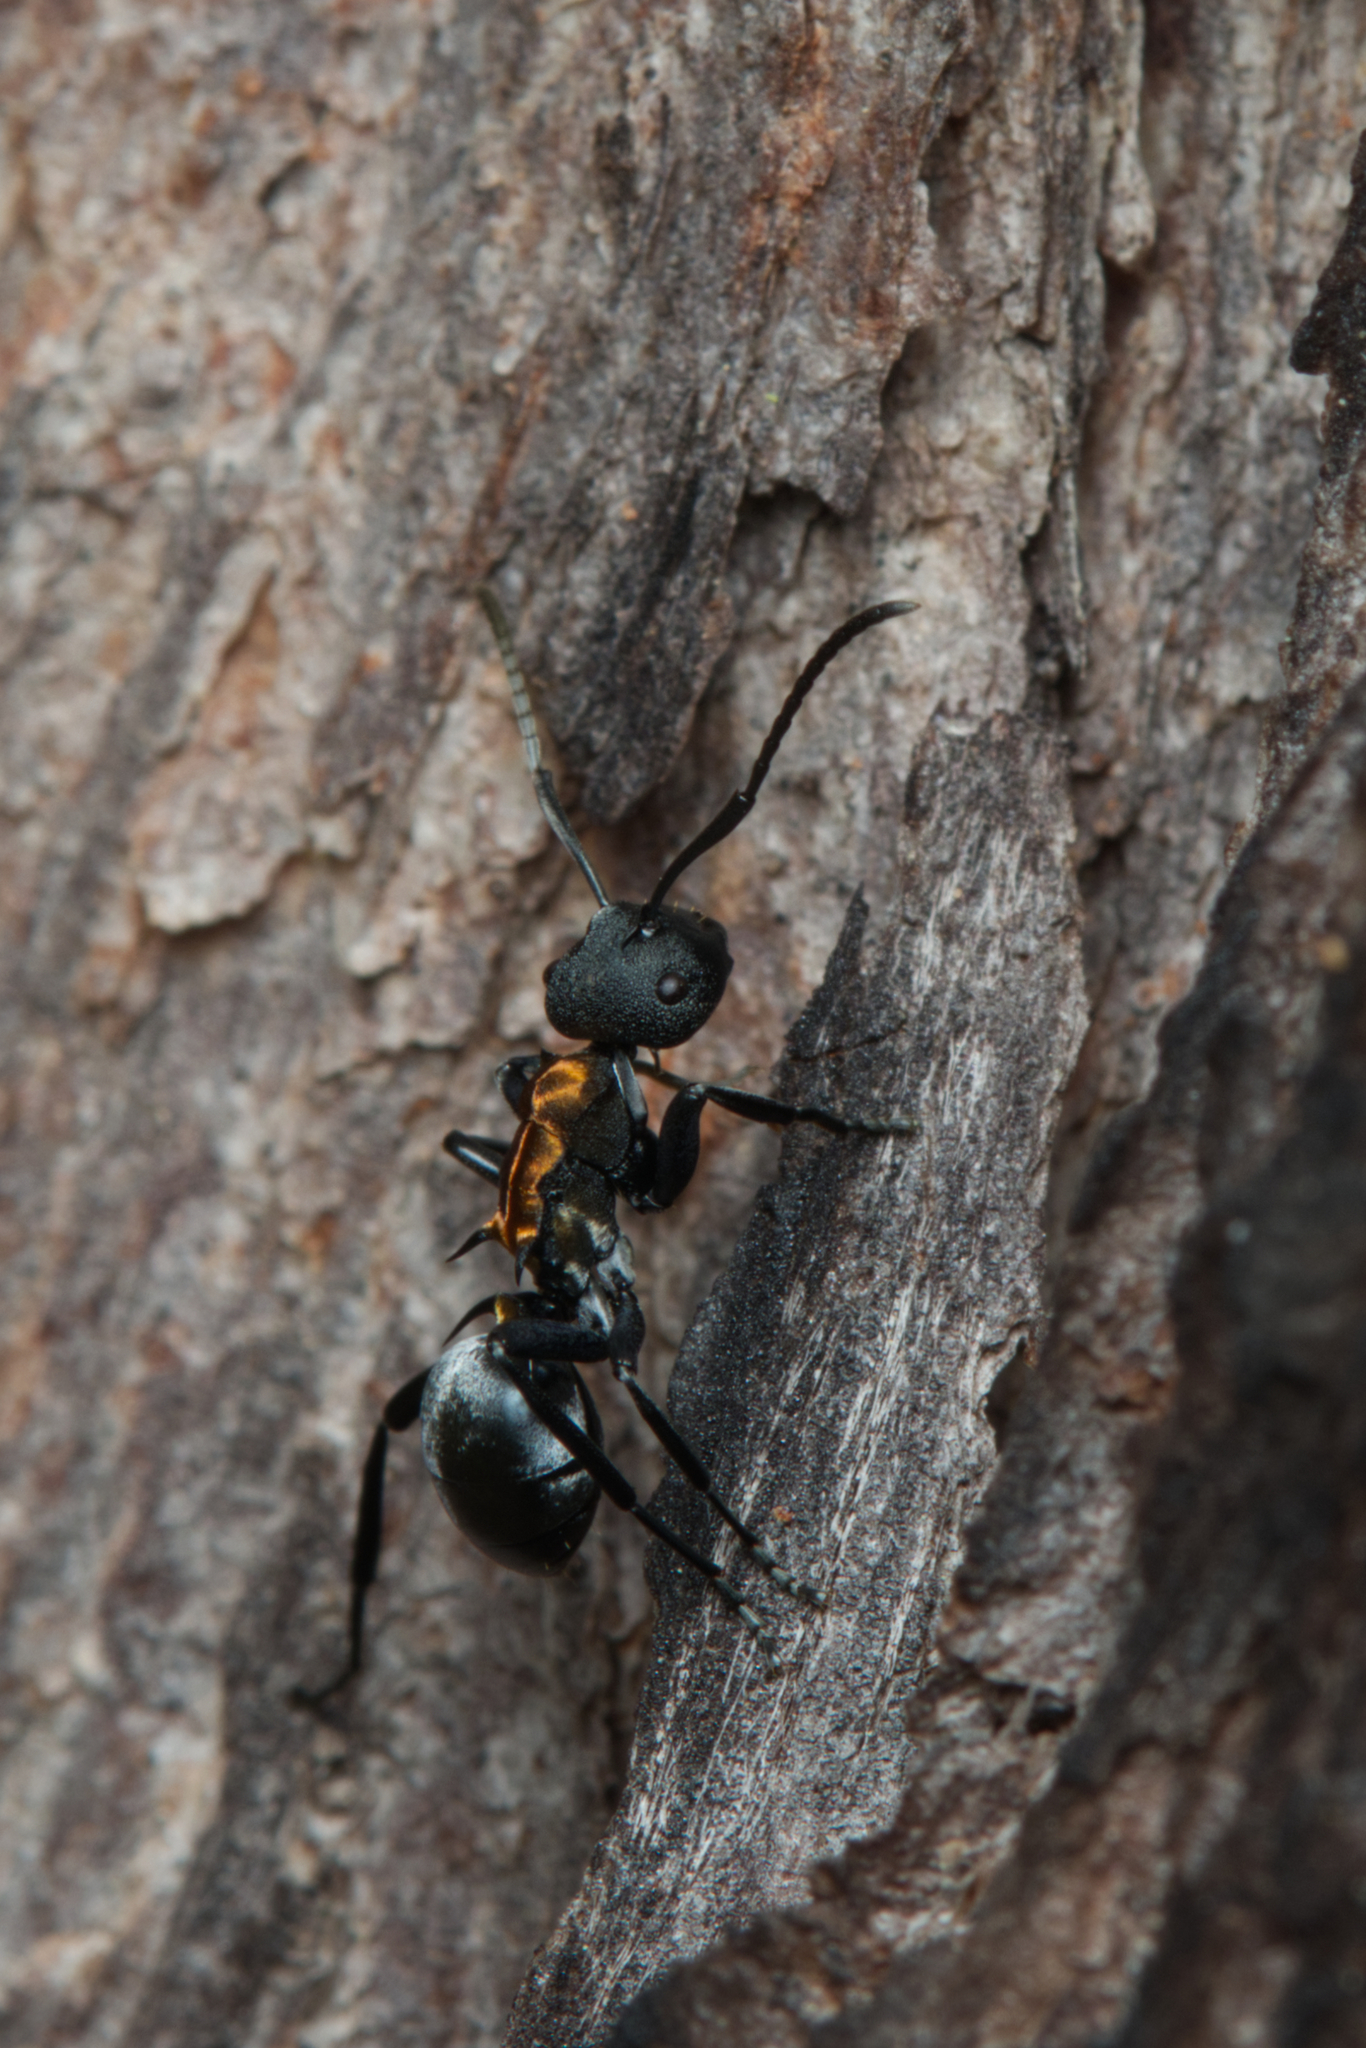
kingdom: Animalia
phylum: Arthropoda
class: Insecta
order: Hymenoptera
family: Formicidae
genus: Polyrhachis
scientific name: Polyrhachis ornata
